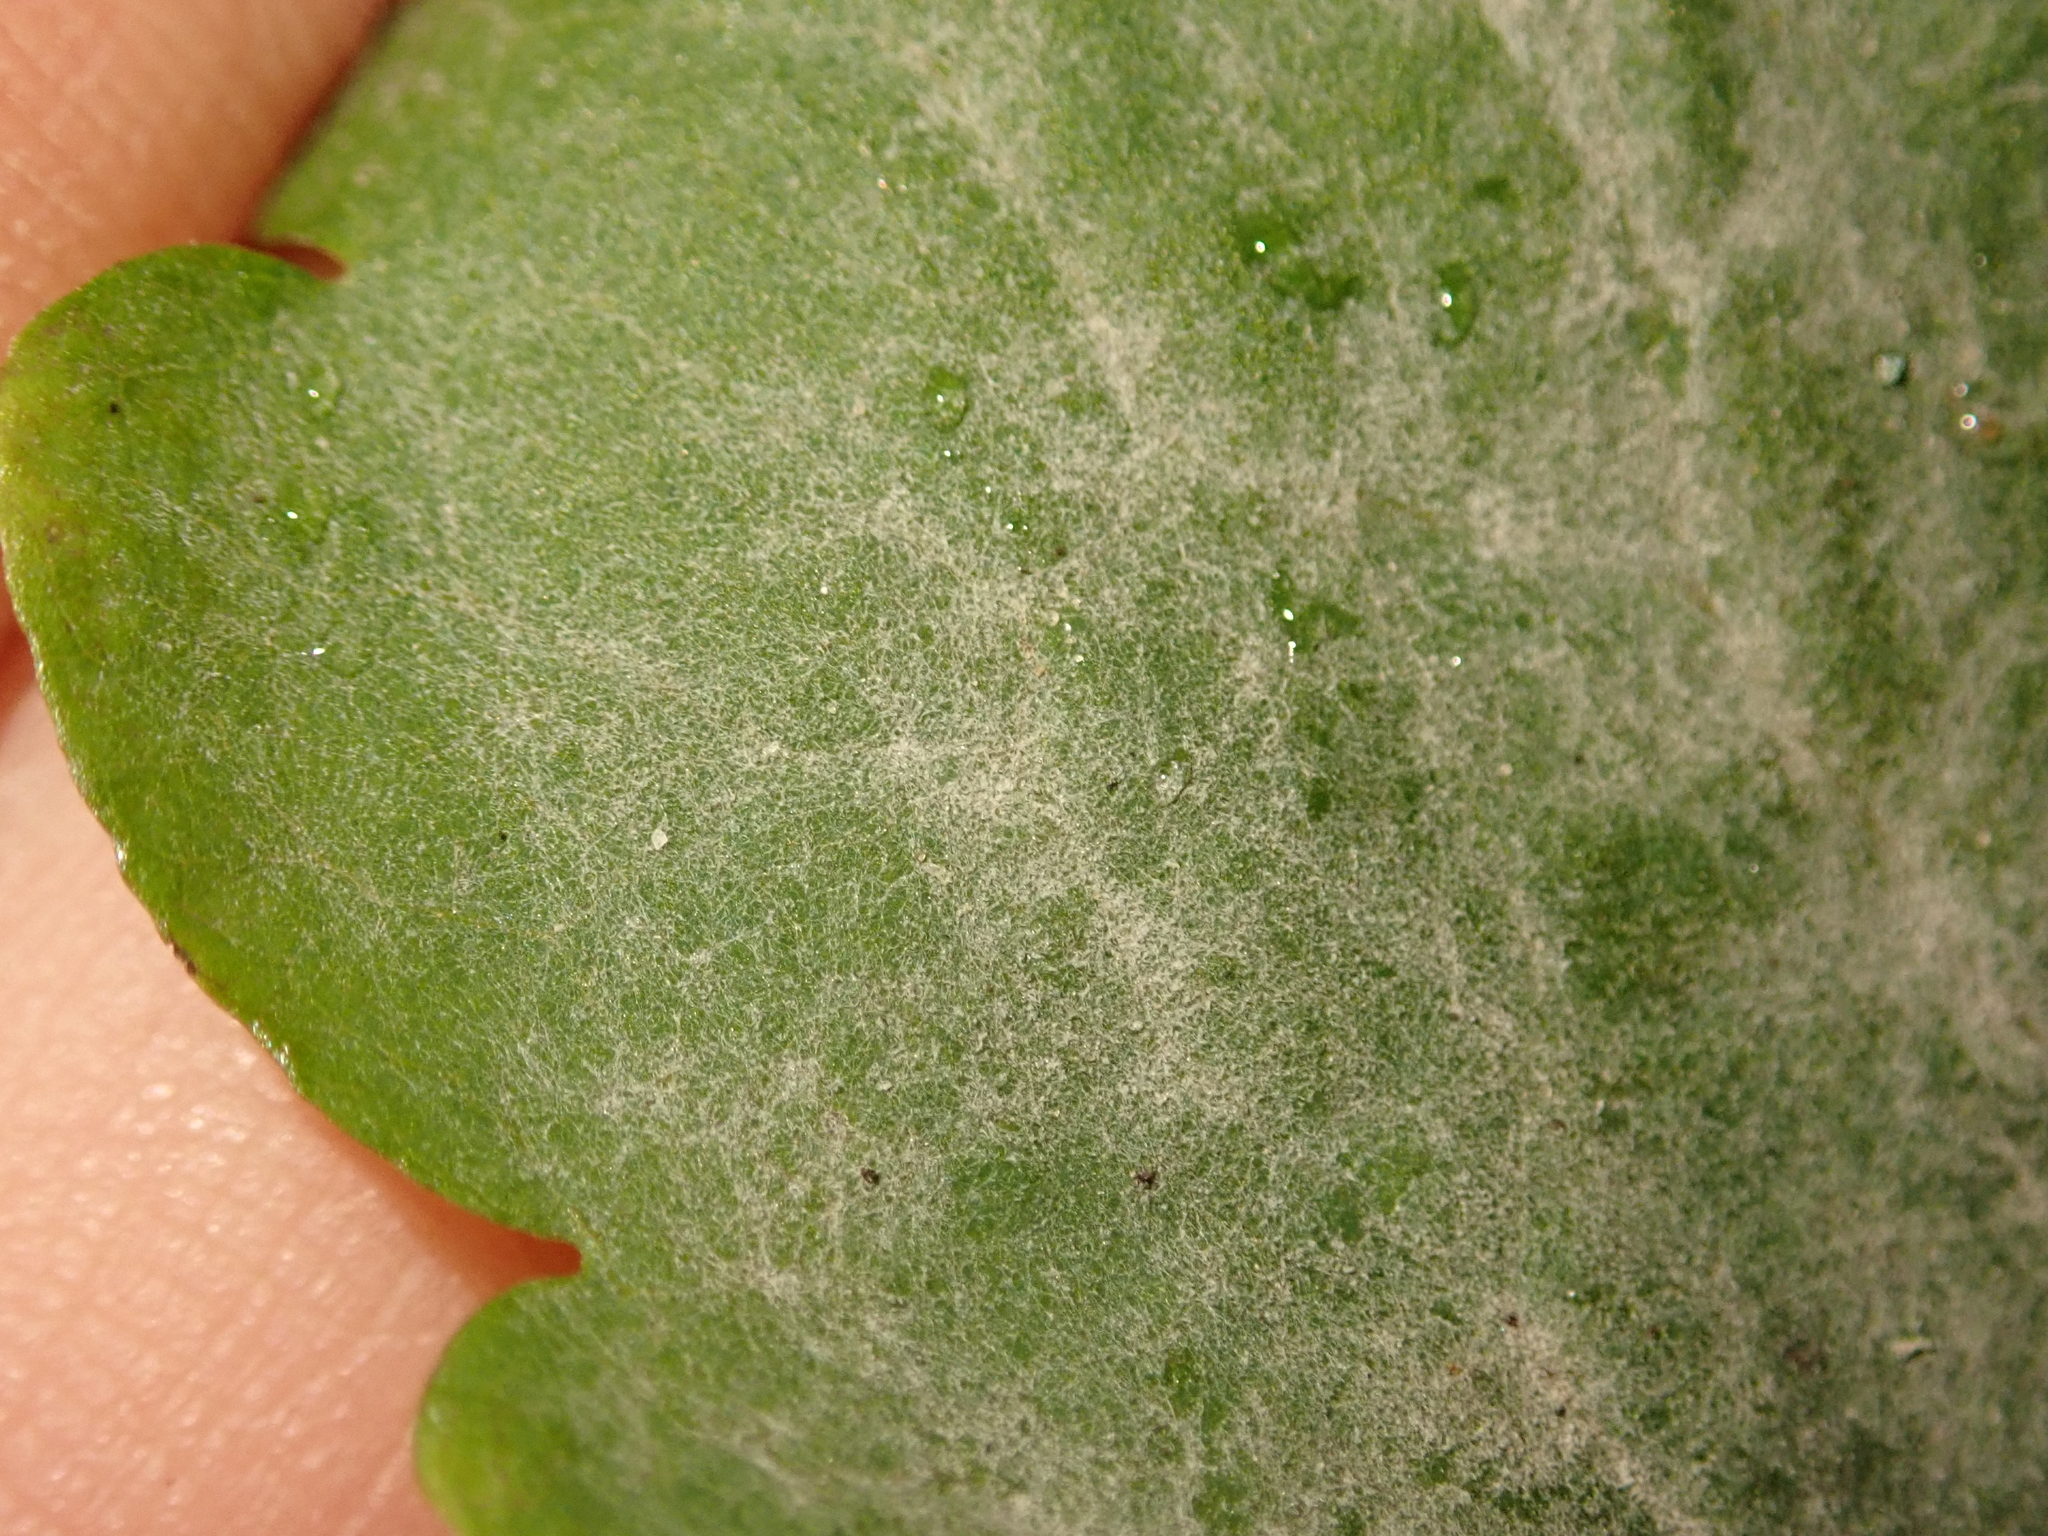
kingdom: Fungi
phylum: Ascomycota
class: Leotiomycetes
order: Helotiales
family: Erysiphaceae
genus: Erysiphe
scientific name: Erysiphe macleayae
